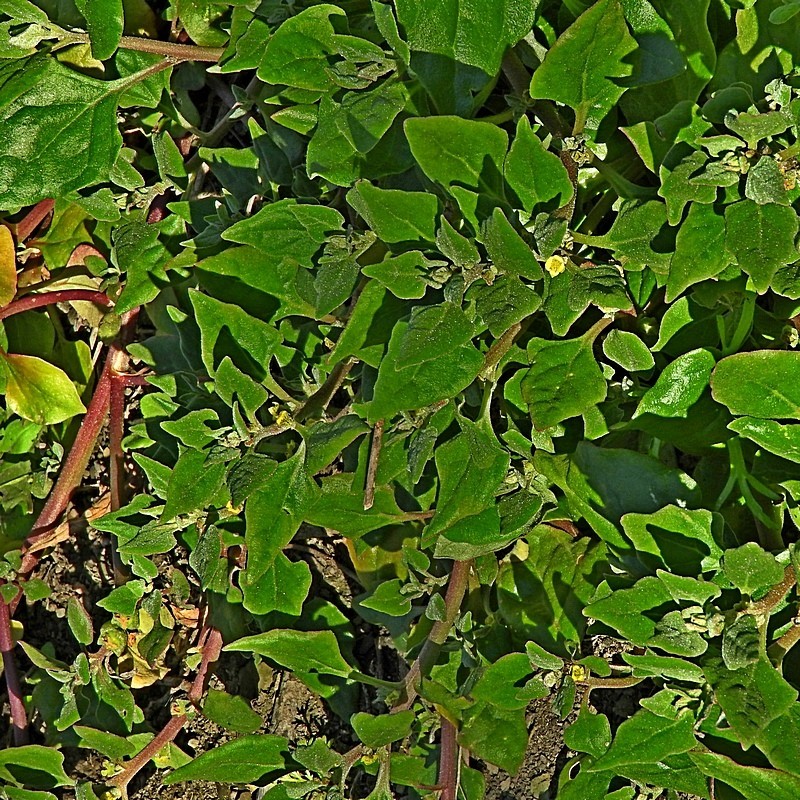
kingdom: Plantae
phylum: Tracheophyta
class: Magnoliopsida
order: Caryophyllales
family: Aizoaceae
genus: Tetragonia
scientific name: Tetragonia tetragonoides
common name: New zealand-spinach
